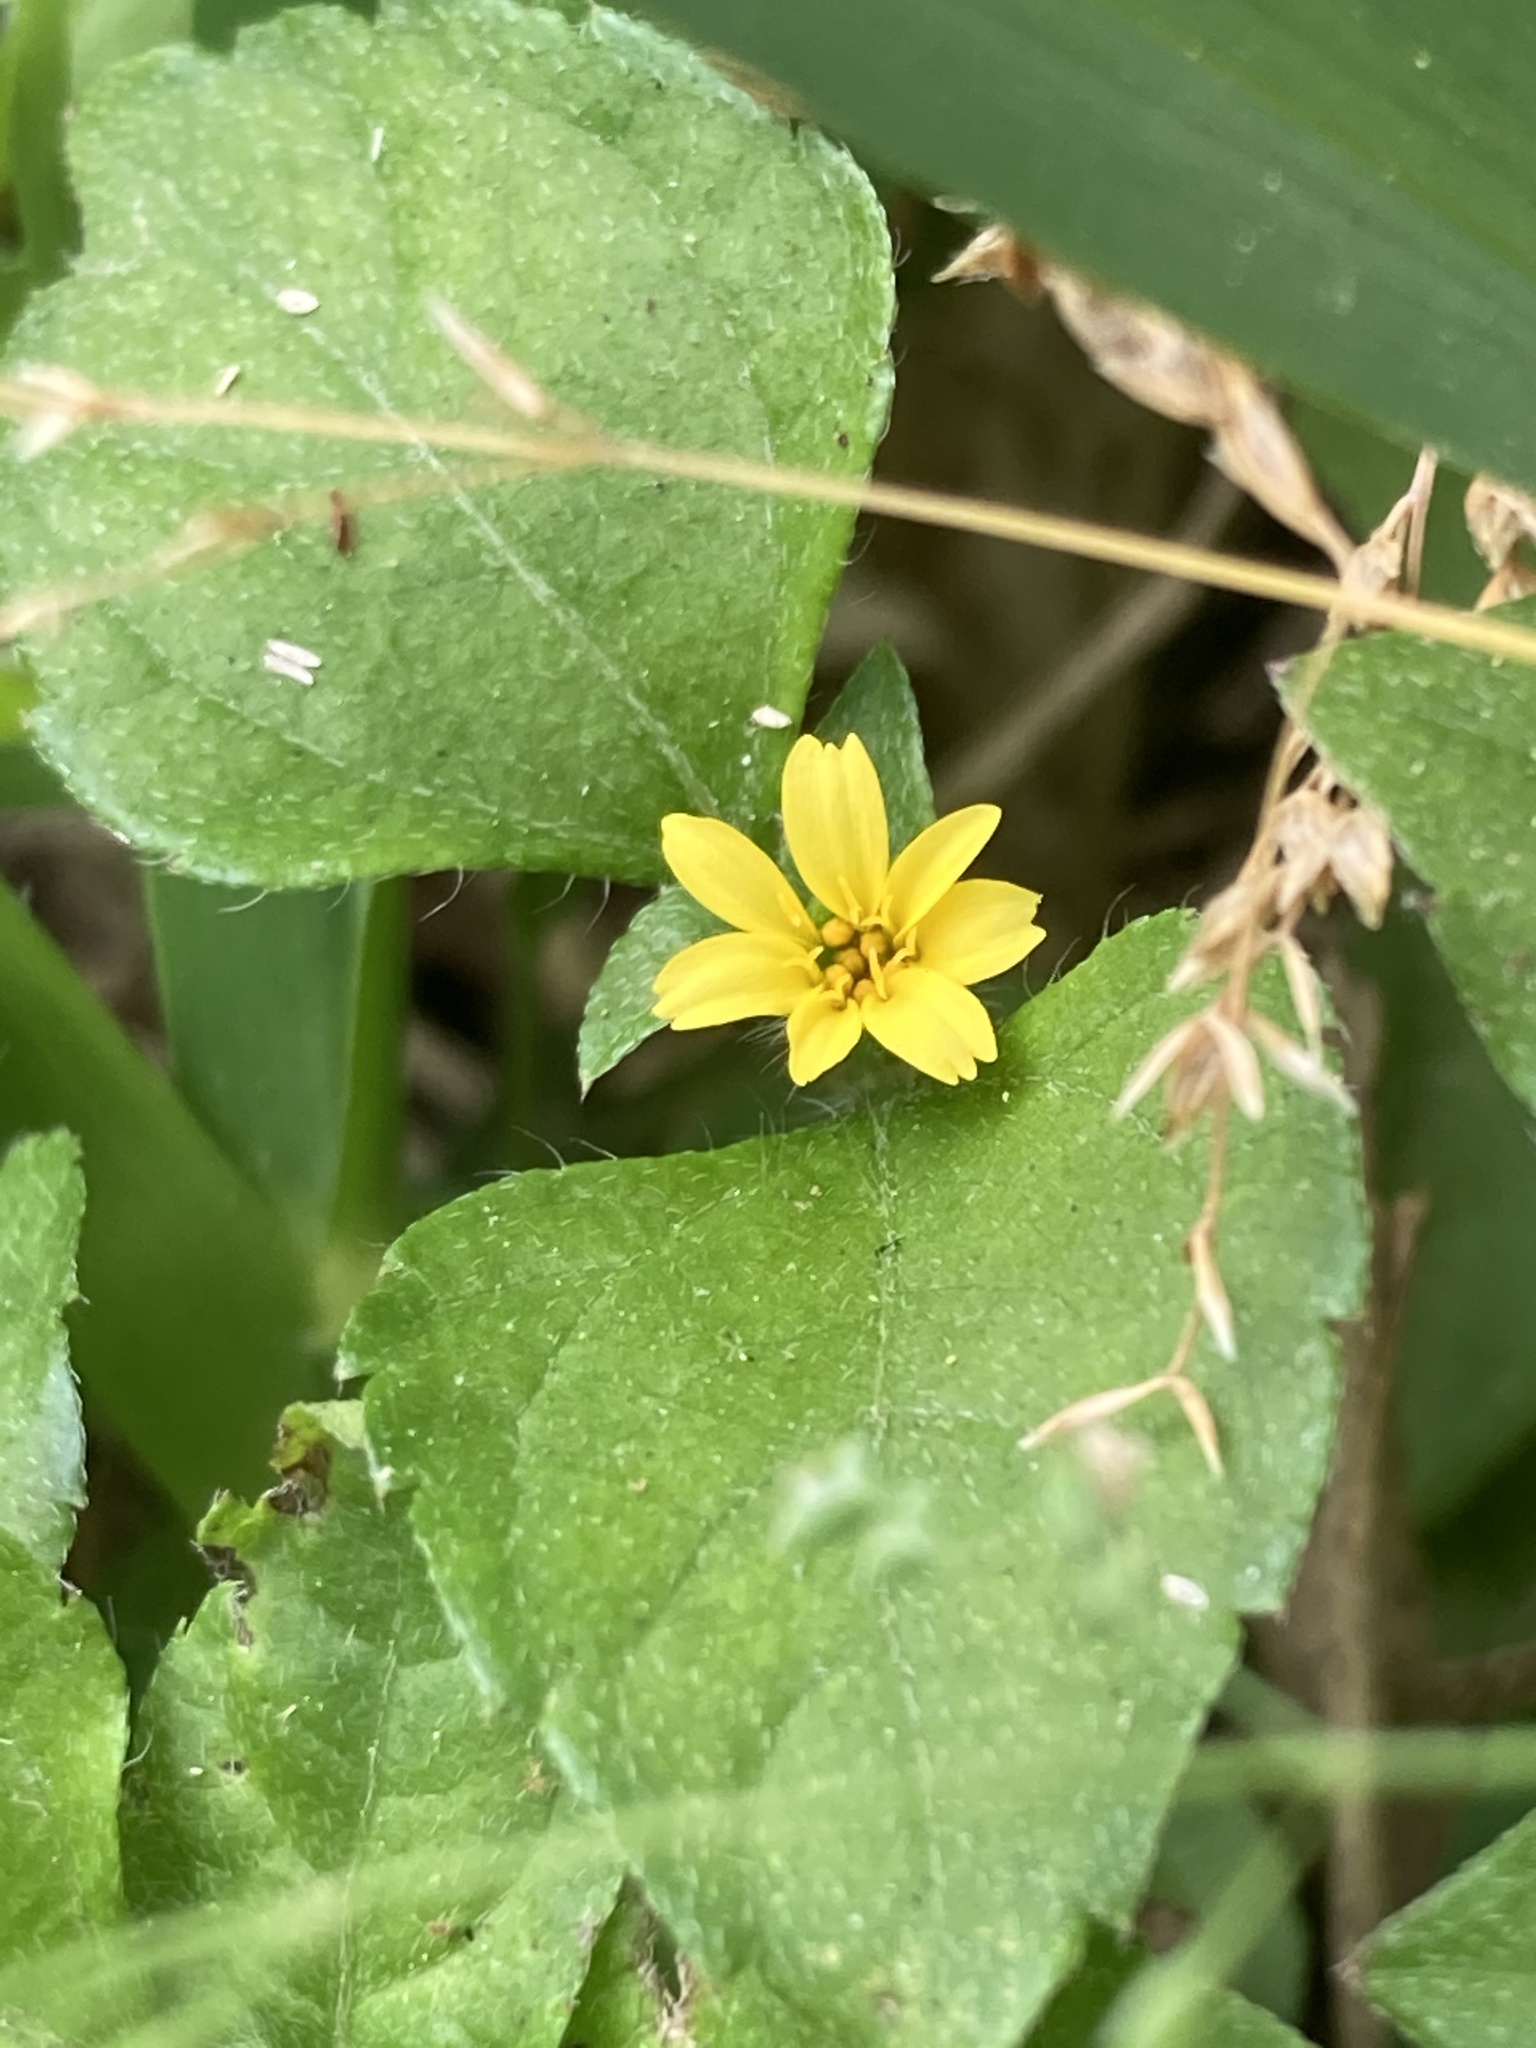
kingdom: Plantae
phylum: Tracheophyta
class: Magnoliopsida
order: Asterales
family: Asteraceae
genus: Calyptocarpus
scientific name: Calyptocarpus vialis
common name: Straggler daisy
